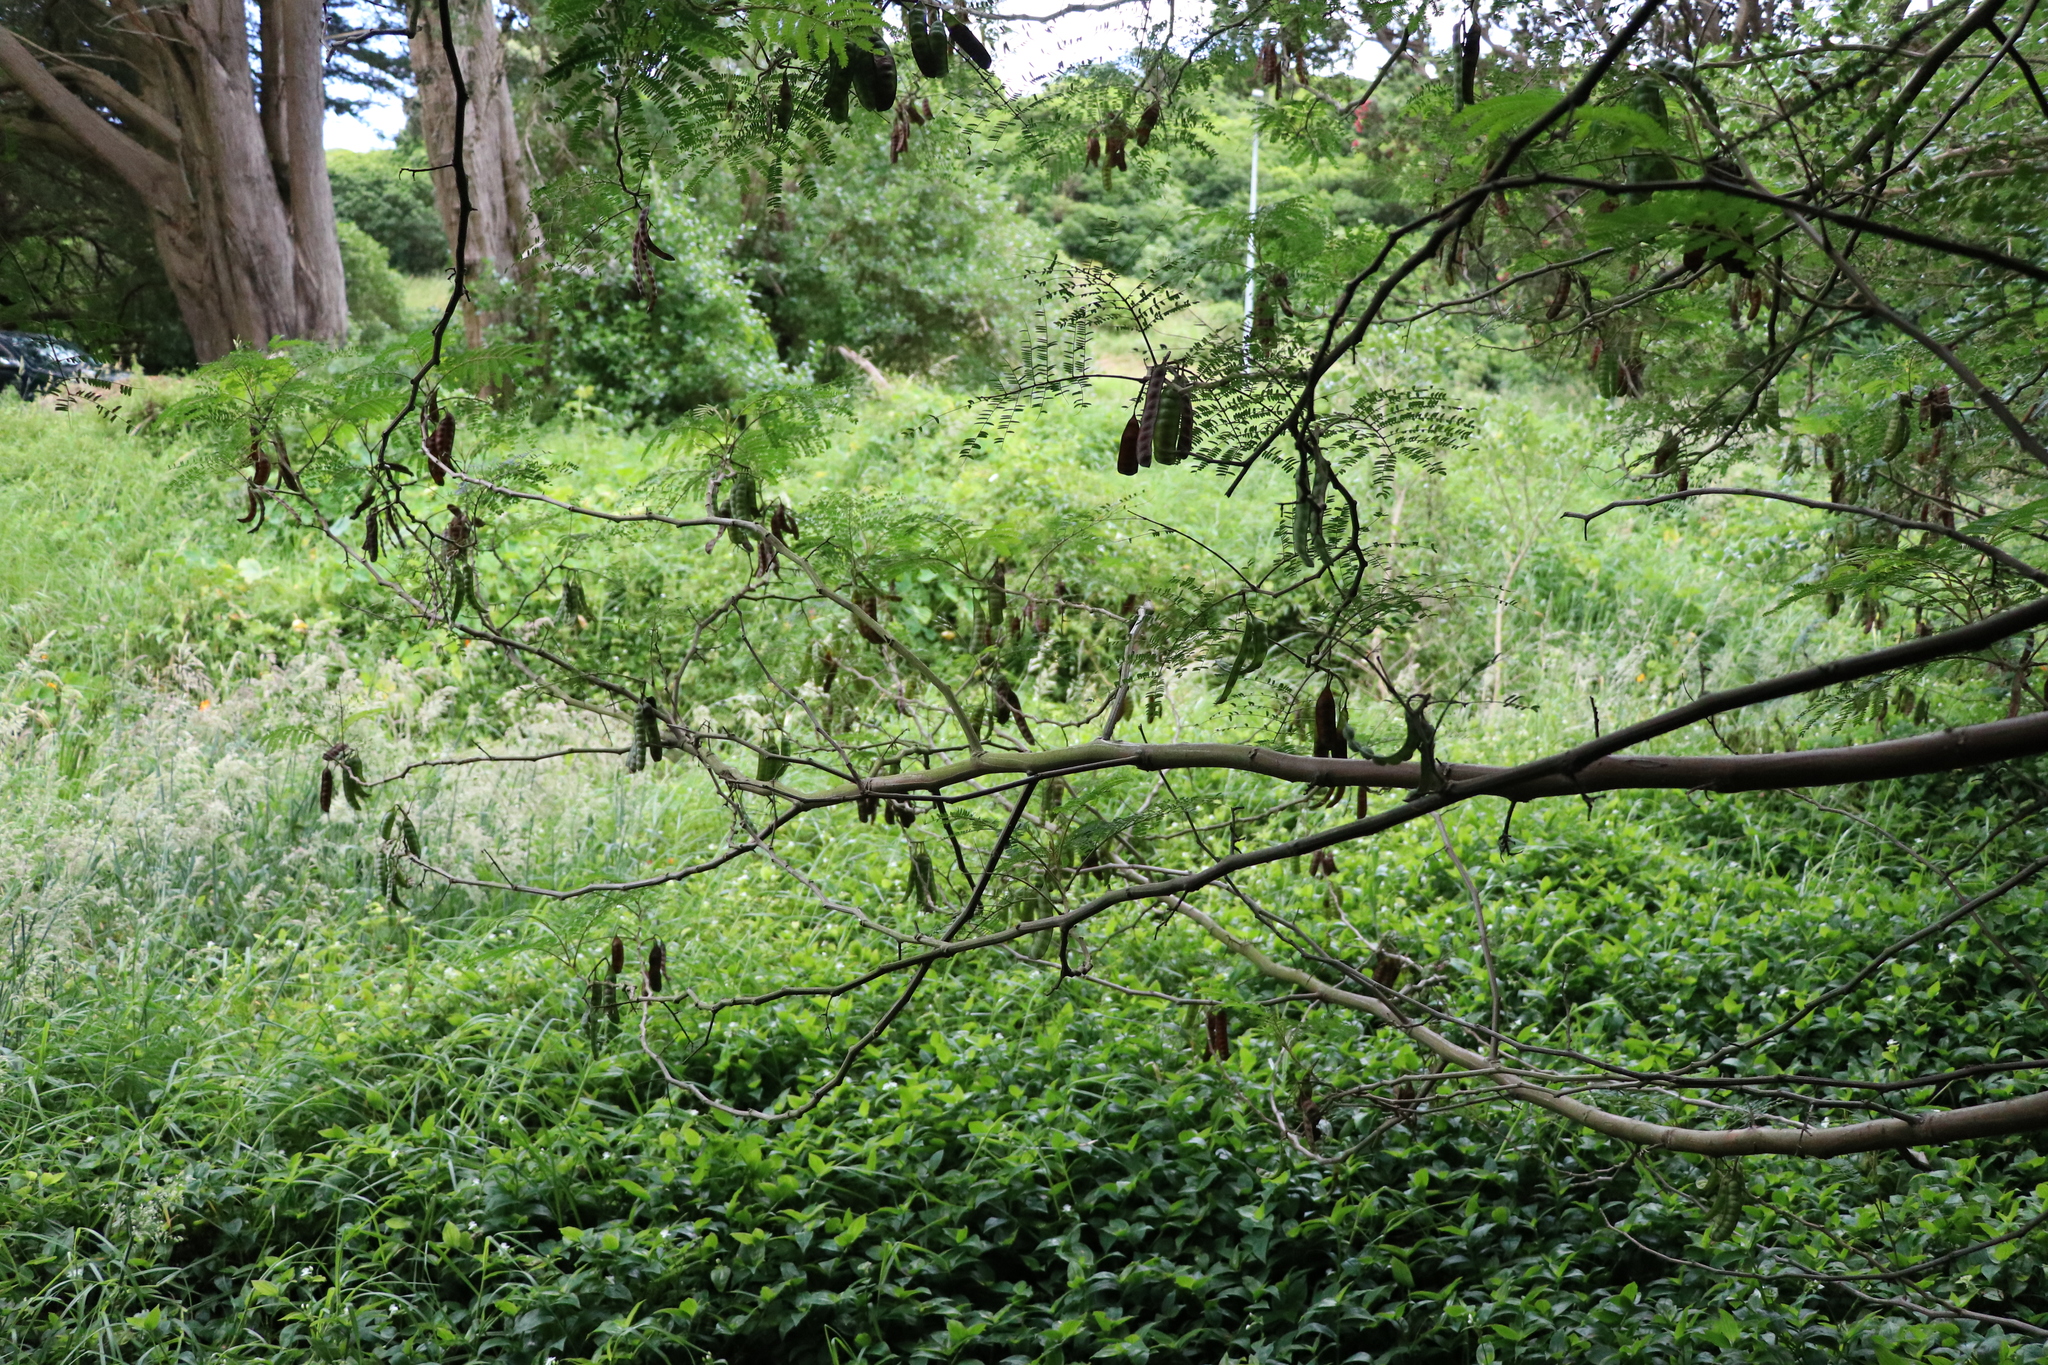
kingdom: Plantae
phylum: Tracheophyta
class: Magnoliopsida
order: Fabales
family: Fabaceae
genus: Paraserianthes
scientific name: Paraserianthes lophantha
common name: Plume albizia
